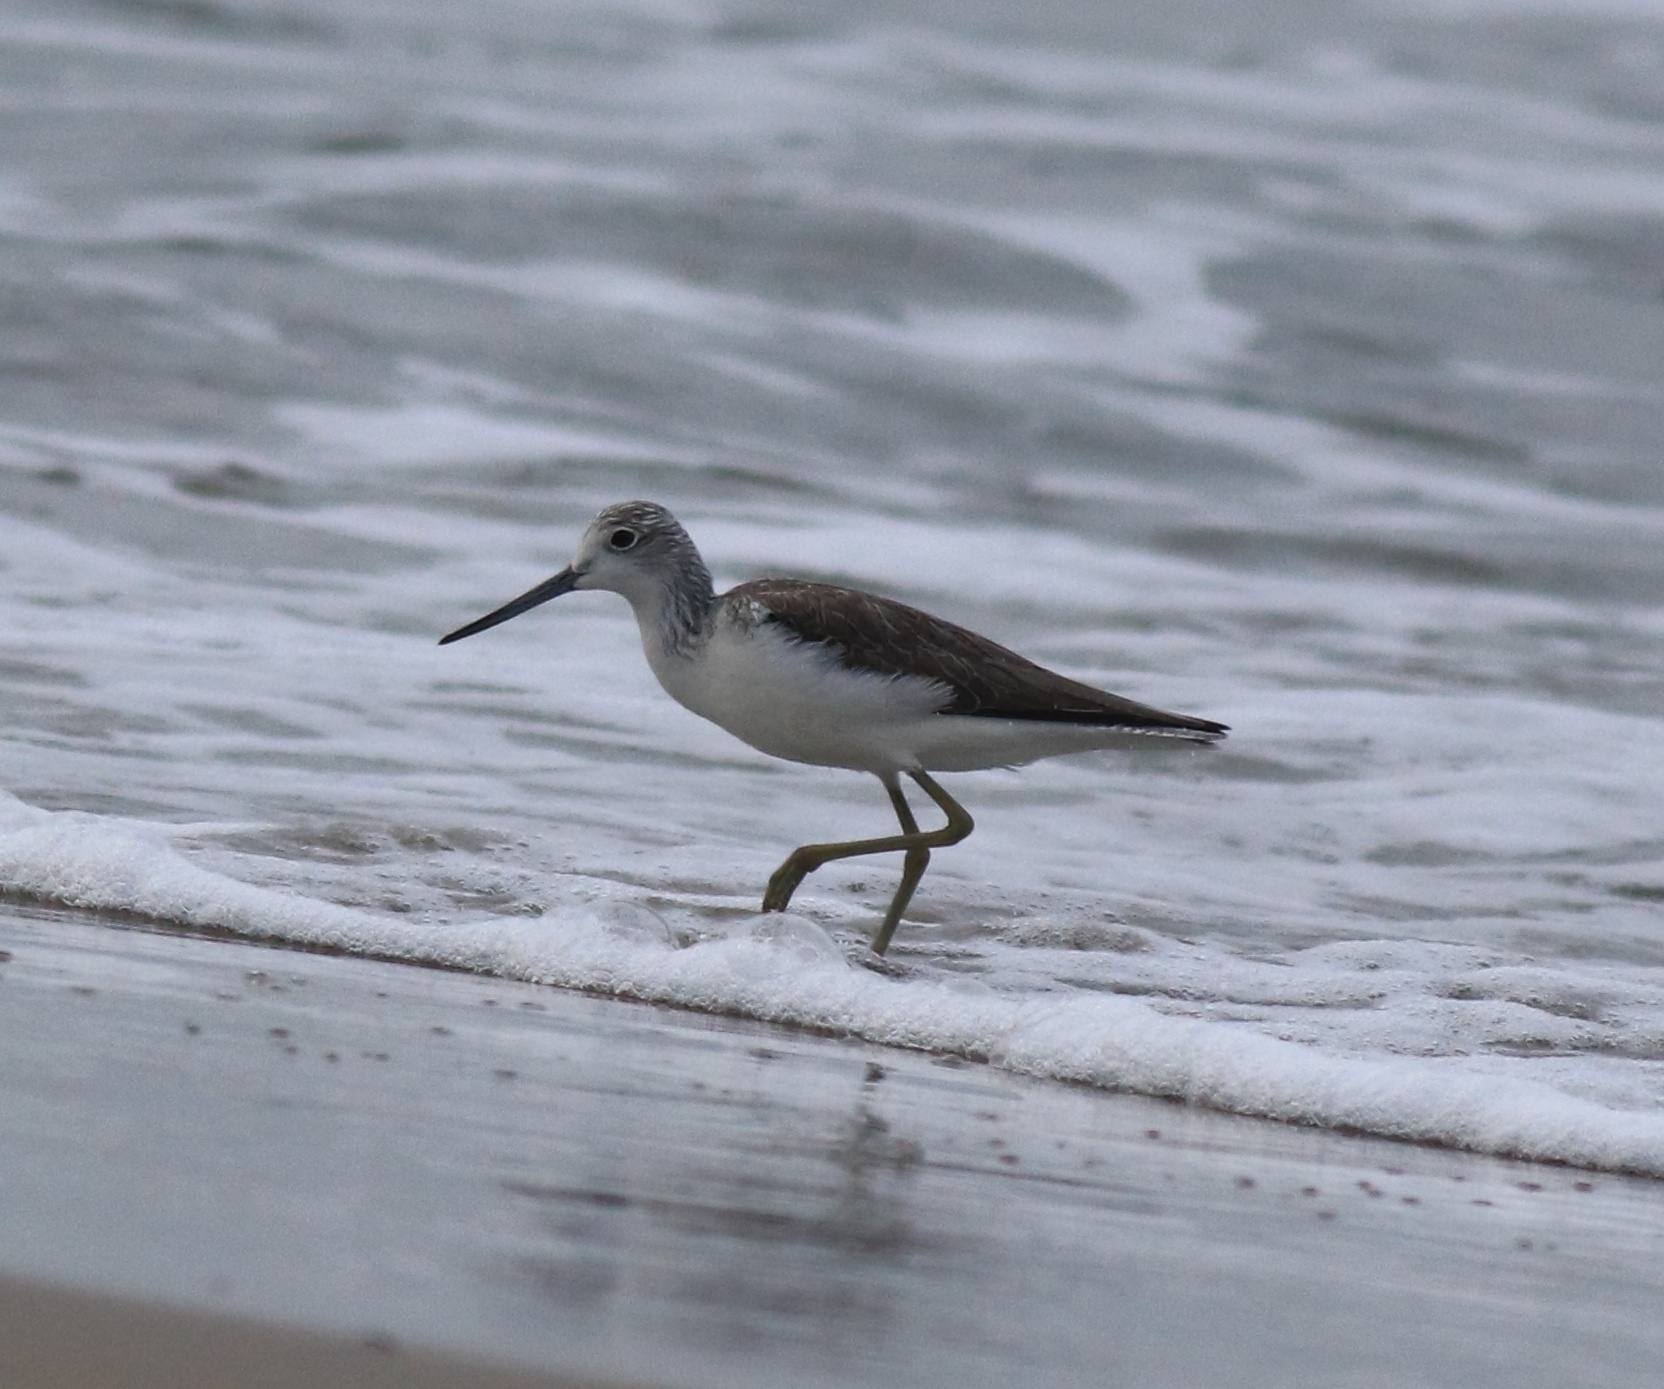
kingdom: Animalia
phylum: Chordata
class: Aves
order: Charadriiformes
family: Scolopacidae
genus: Tringa
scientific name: Tringa nebularia
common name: Common greenshank
